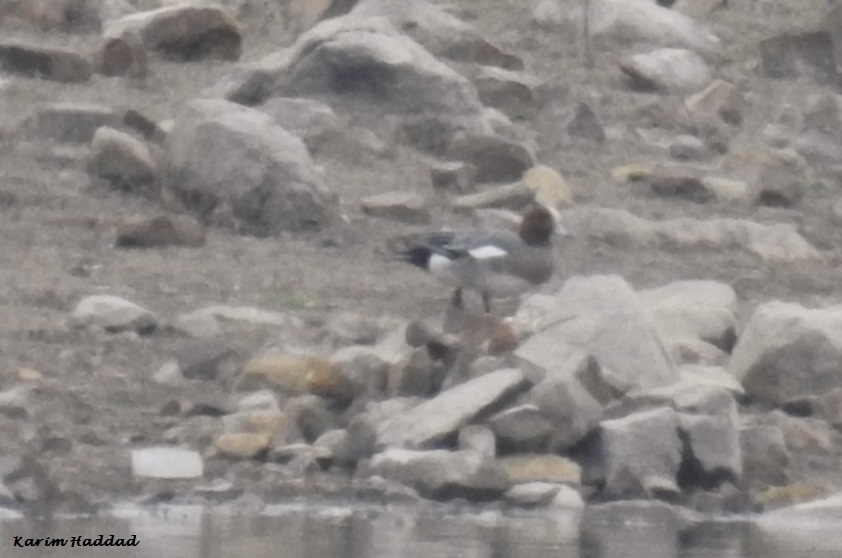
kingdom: Animalia
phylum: Chordata
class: Aves
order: Anseriformes
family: Anatidae
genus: Mareca
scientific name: Mareca penelope
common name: Eurasian wigeon
